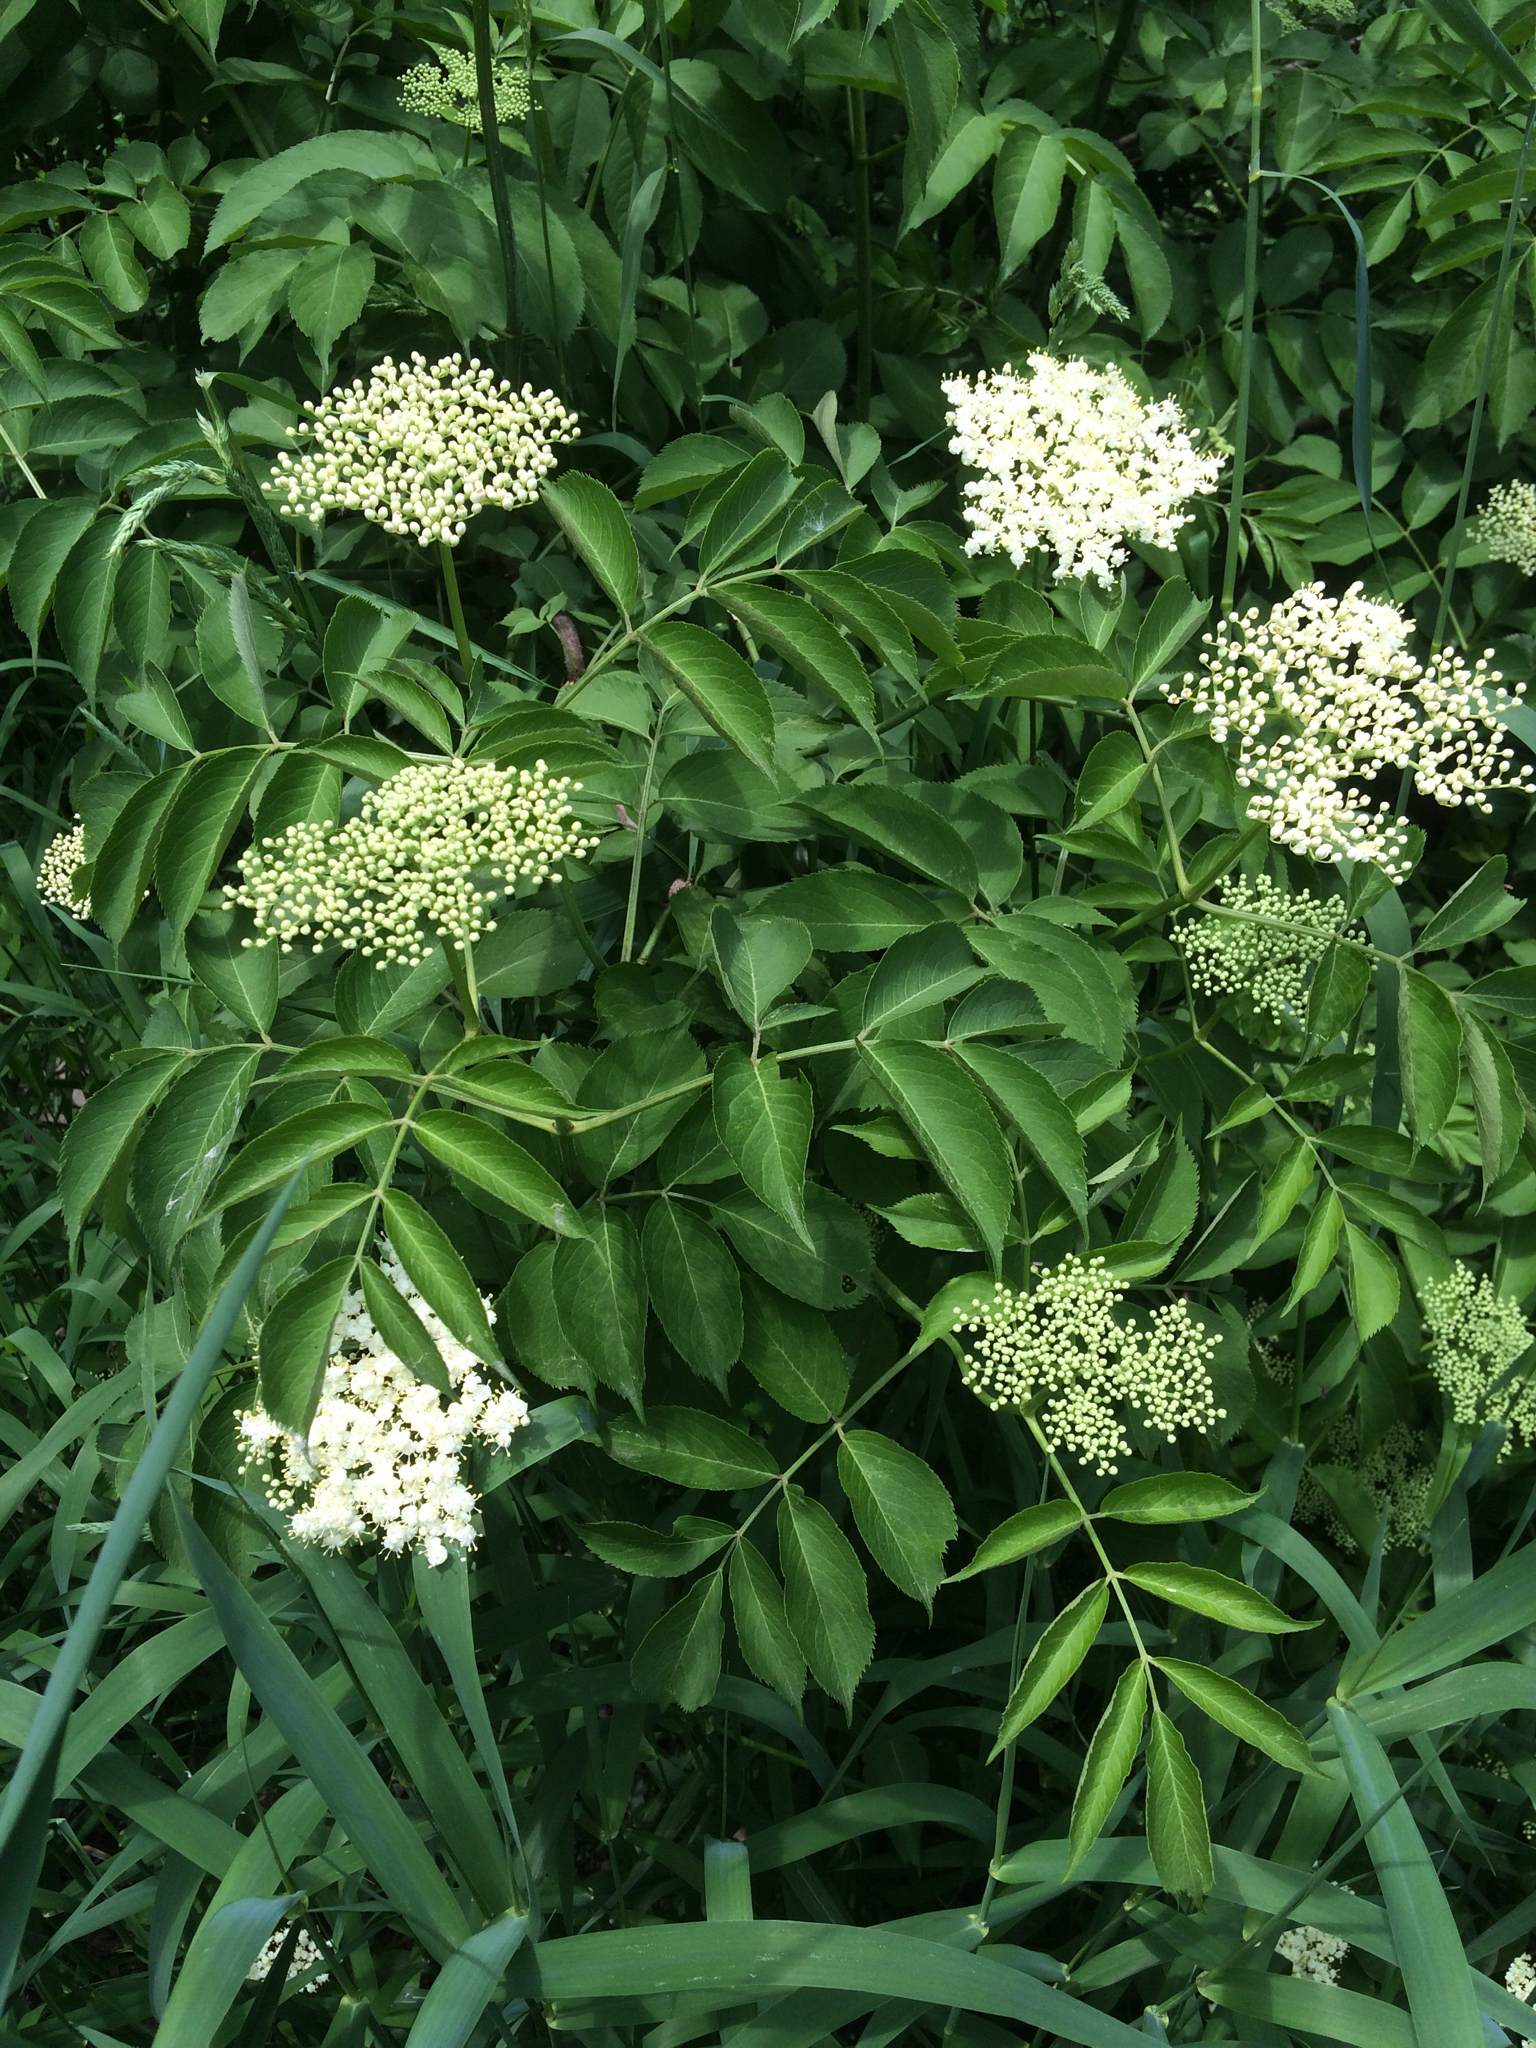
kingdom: Plantae
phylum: Tracheophyta
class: Magnoliopsida
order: Dipsacales
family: Viburnaceae
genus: Sambucus
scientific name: Sambucus canadensis
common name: American elder
